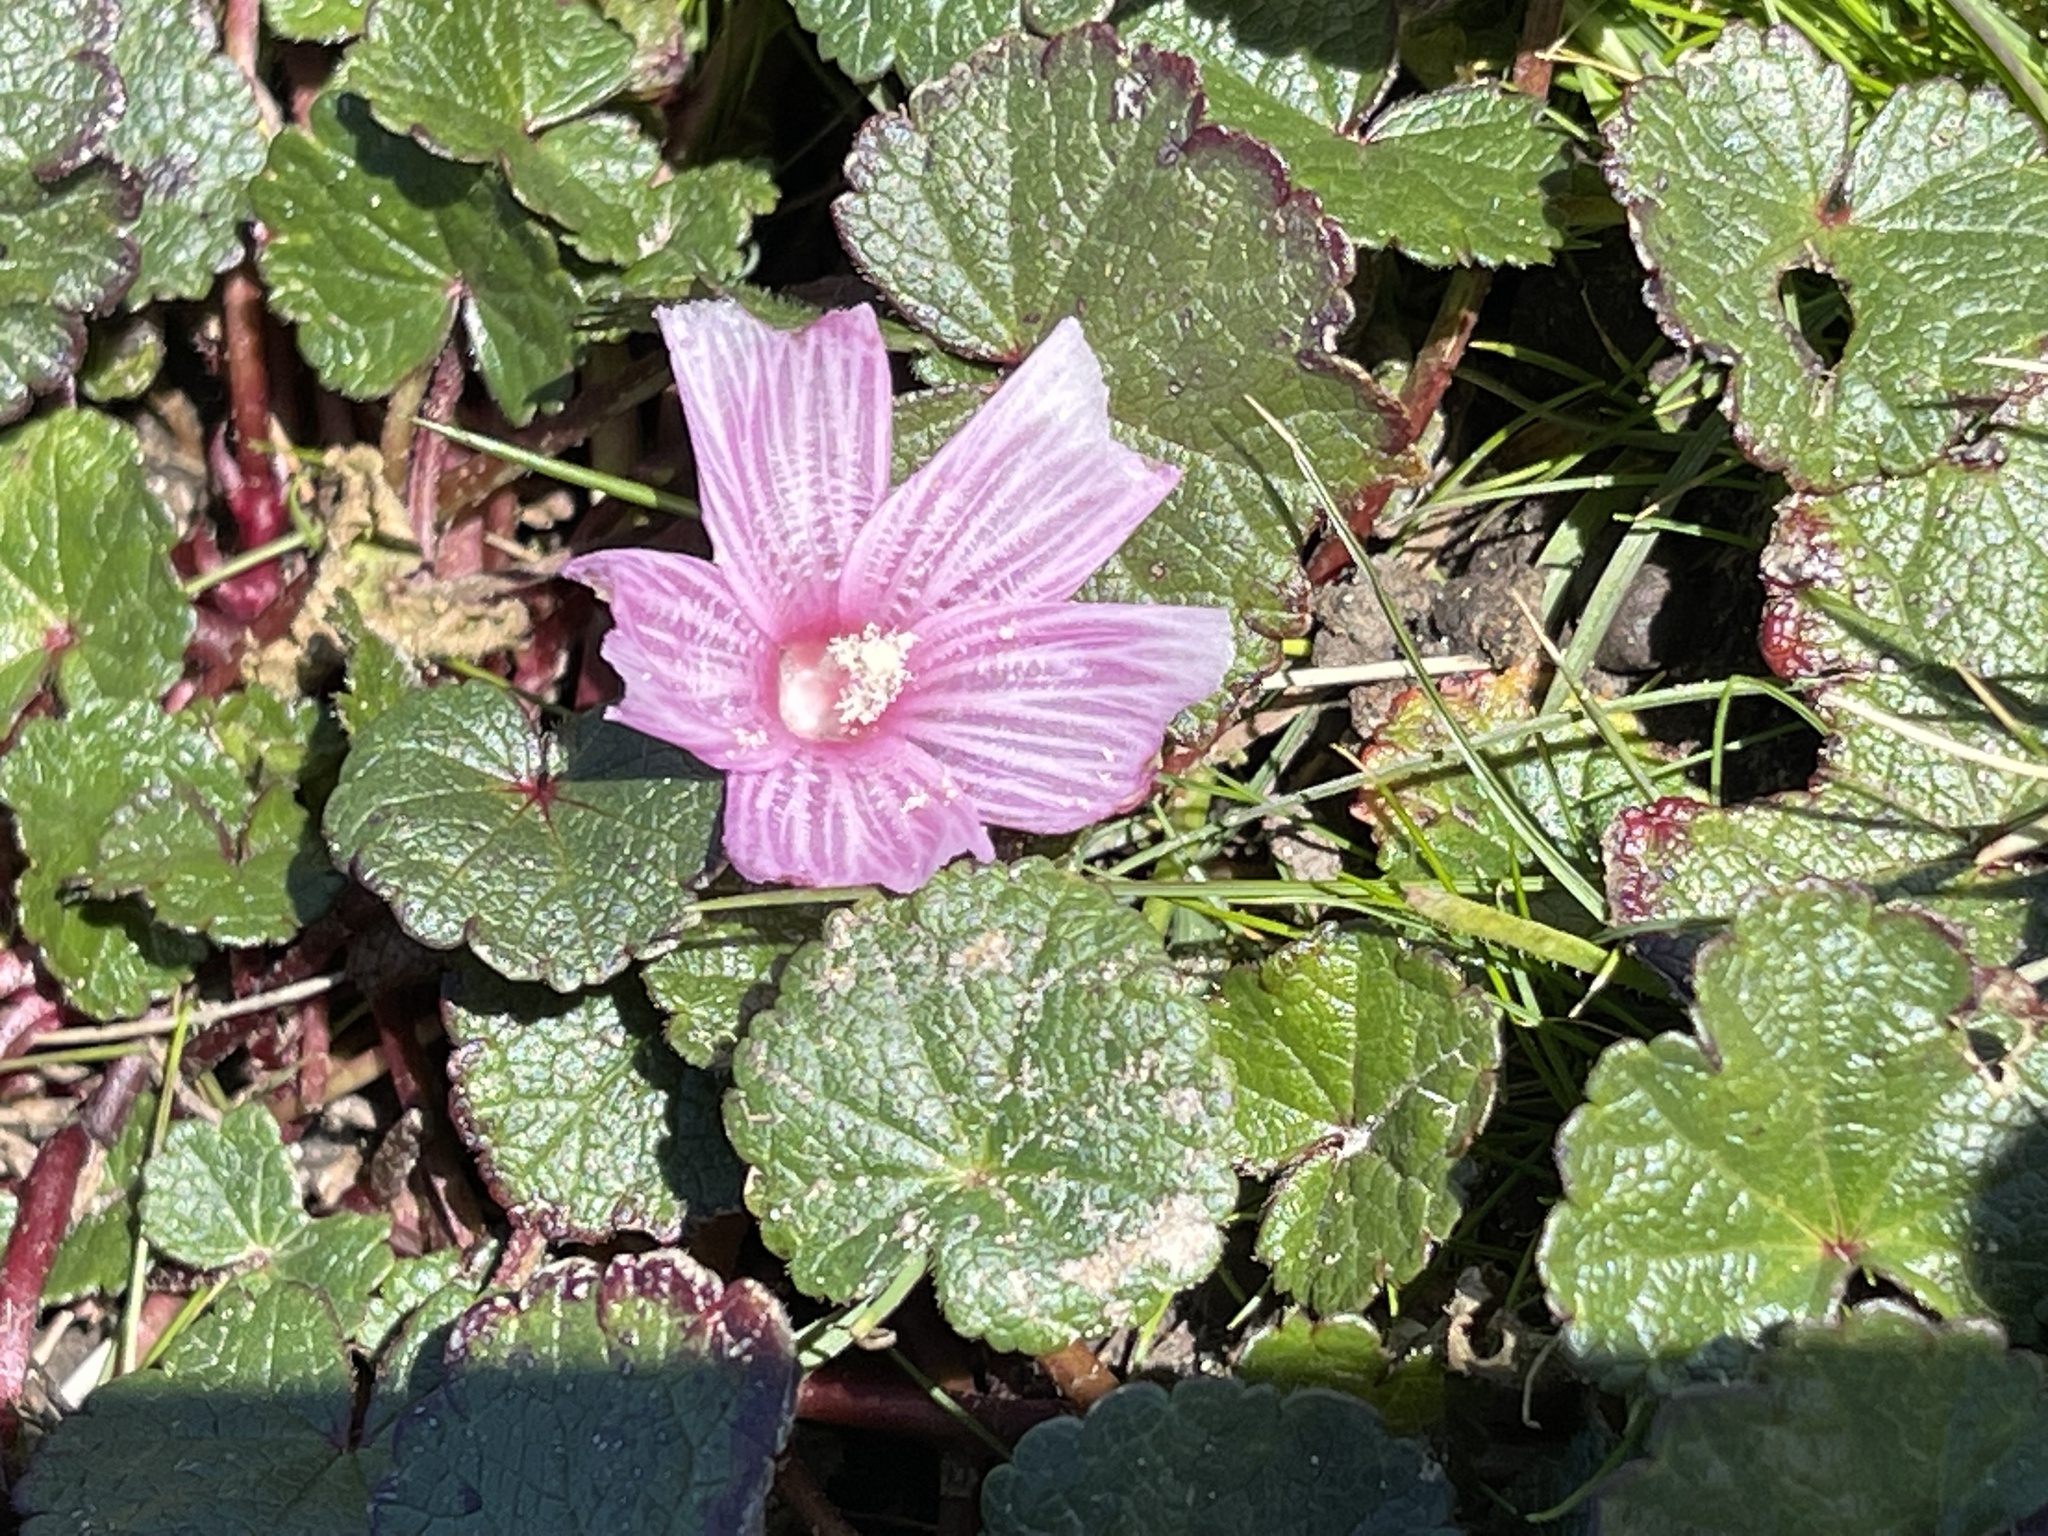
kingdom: Plantae
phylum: Tracheophyta
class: Magnoliopsida
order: Malvales
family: Malvaceae
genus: Sidalcea
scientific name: Sidalcea malviflora
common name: Greek mallow
